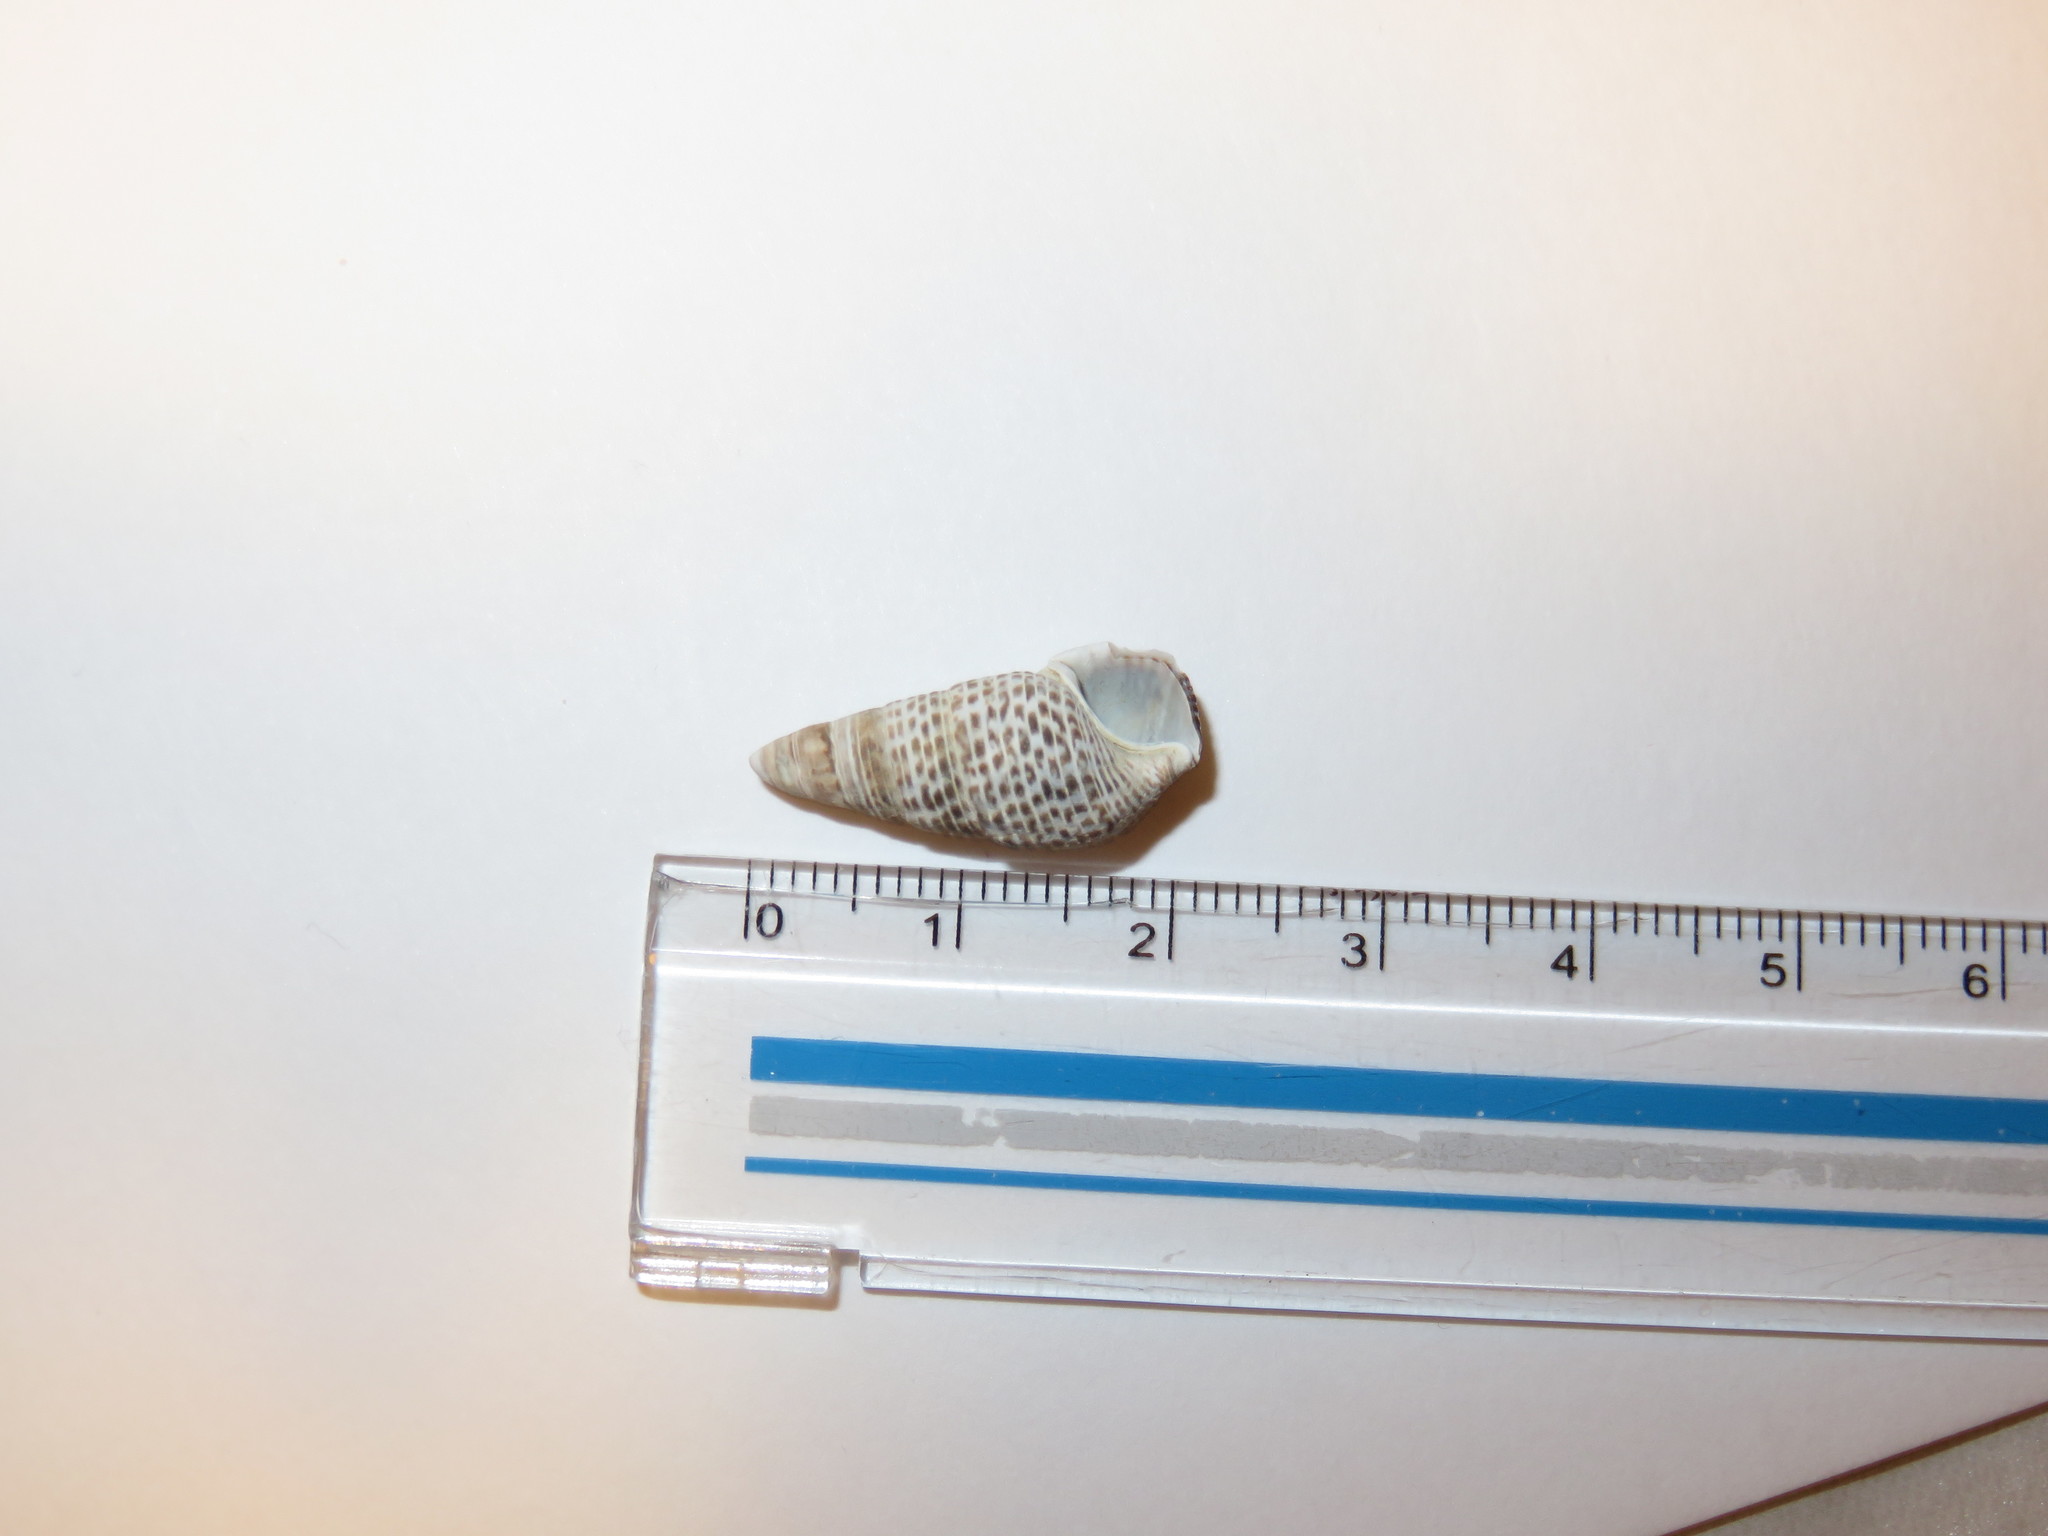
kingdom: Animalia
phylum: Mollusca
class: Gastropoda
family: Batillariidae
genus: Batillaria
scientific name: Batillaria attramentaria
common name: Japanese false cerith
